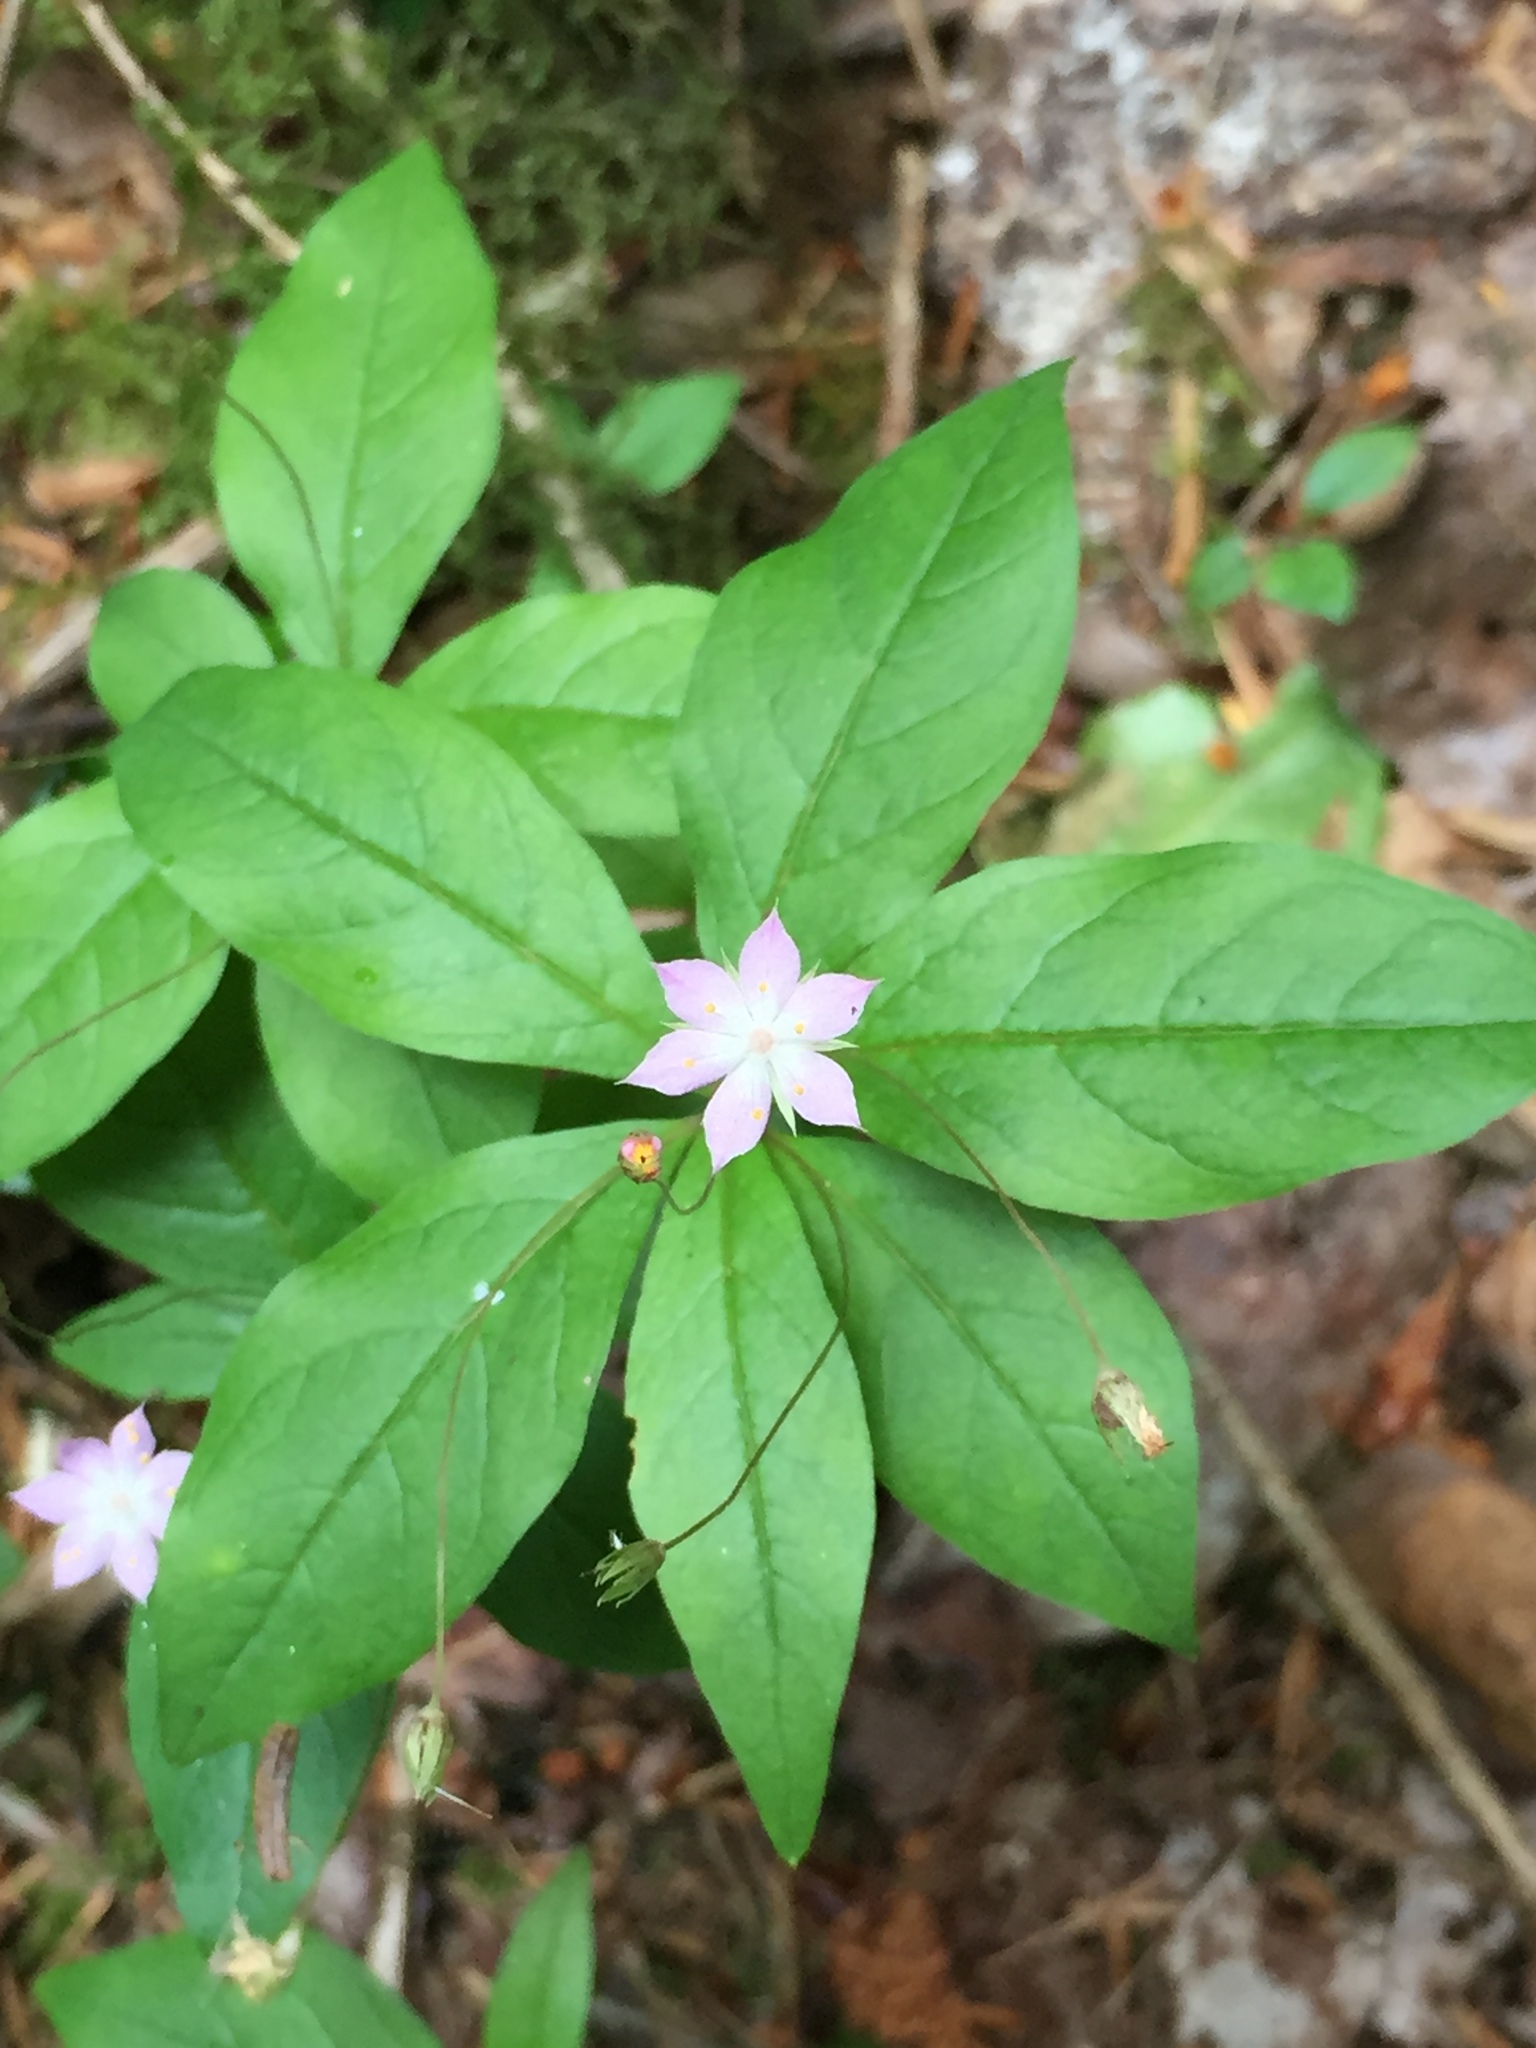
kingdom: Plantae
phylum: Tracheophyta
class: Magnoliopsida
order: Ericales
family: Primulaceae
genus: Lysimachia
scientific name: Lysimachia latifolia
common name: Pacific starflower
